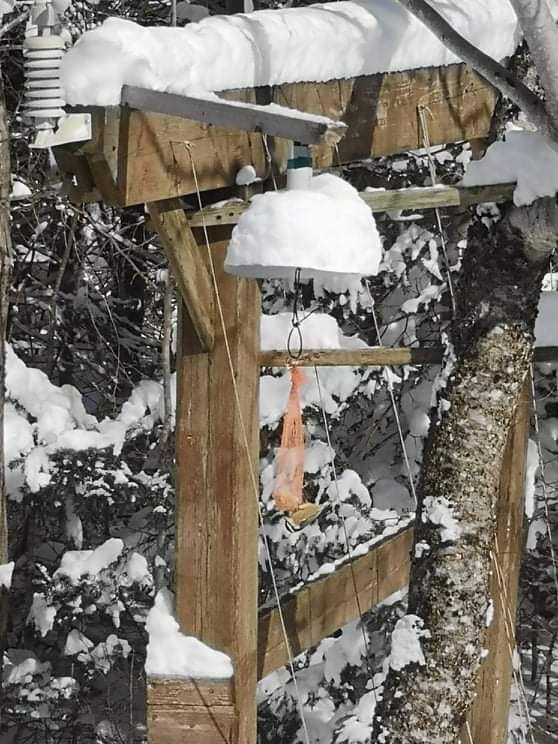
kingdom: Animalia
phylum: Chordata
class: Aves
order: Passeriformes
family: Sittidae
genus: Sitta
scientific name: Sitta canadensis
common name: Red-breasted nuthatch
